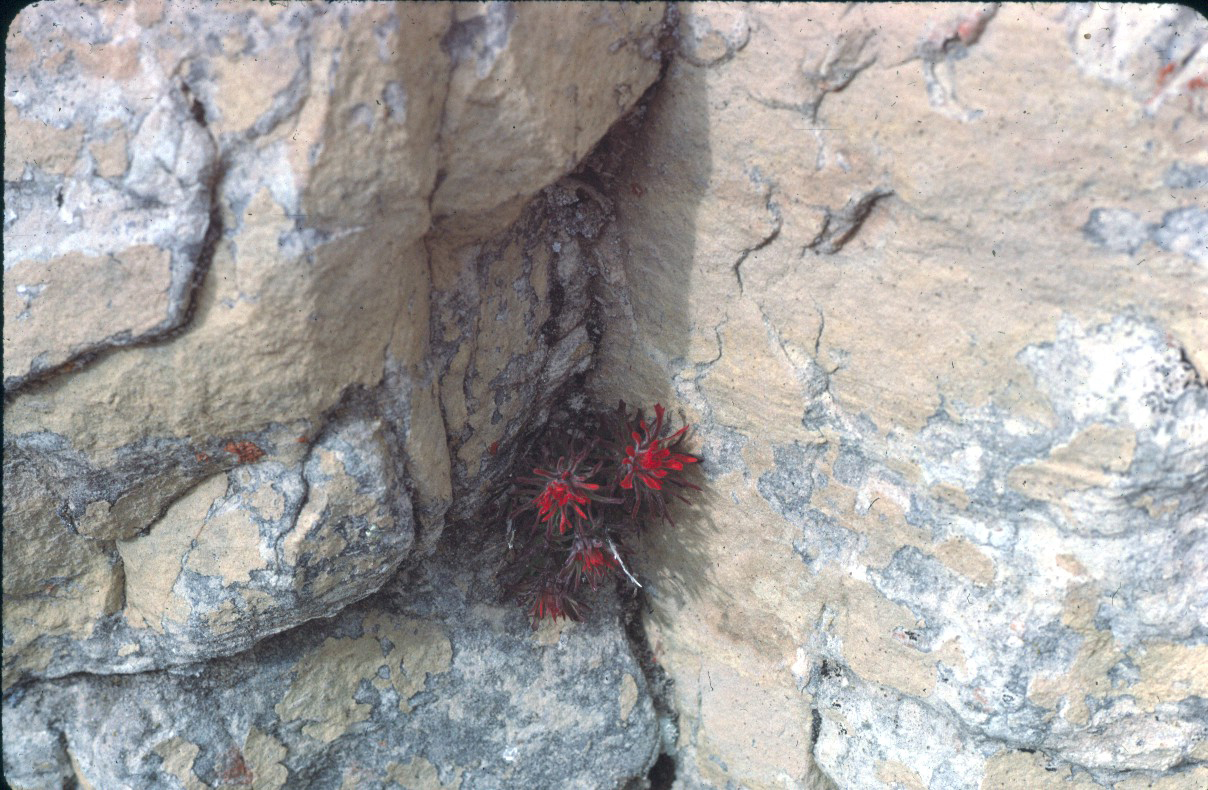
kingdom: Plantae
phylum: Tracheophyta
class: Magnoliopsida
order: Lamiales
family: Orobanchaceae
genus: Castilleja
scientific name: Castilleja scabrida
